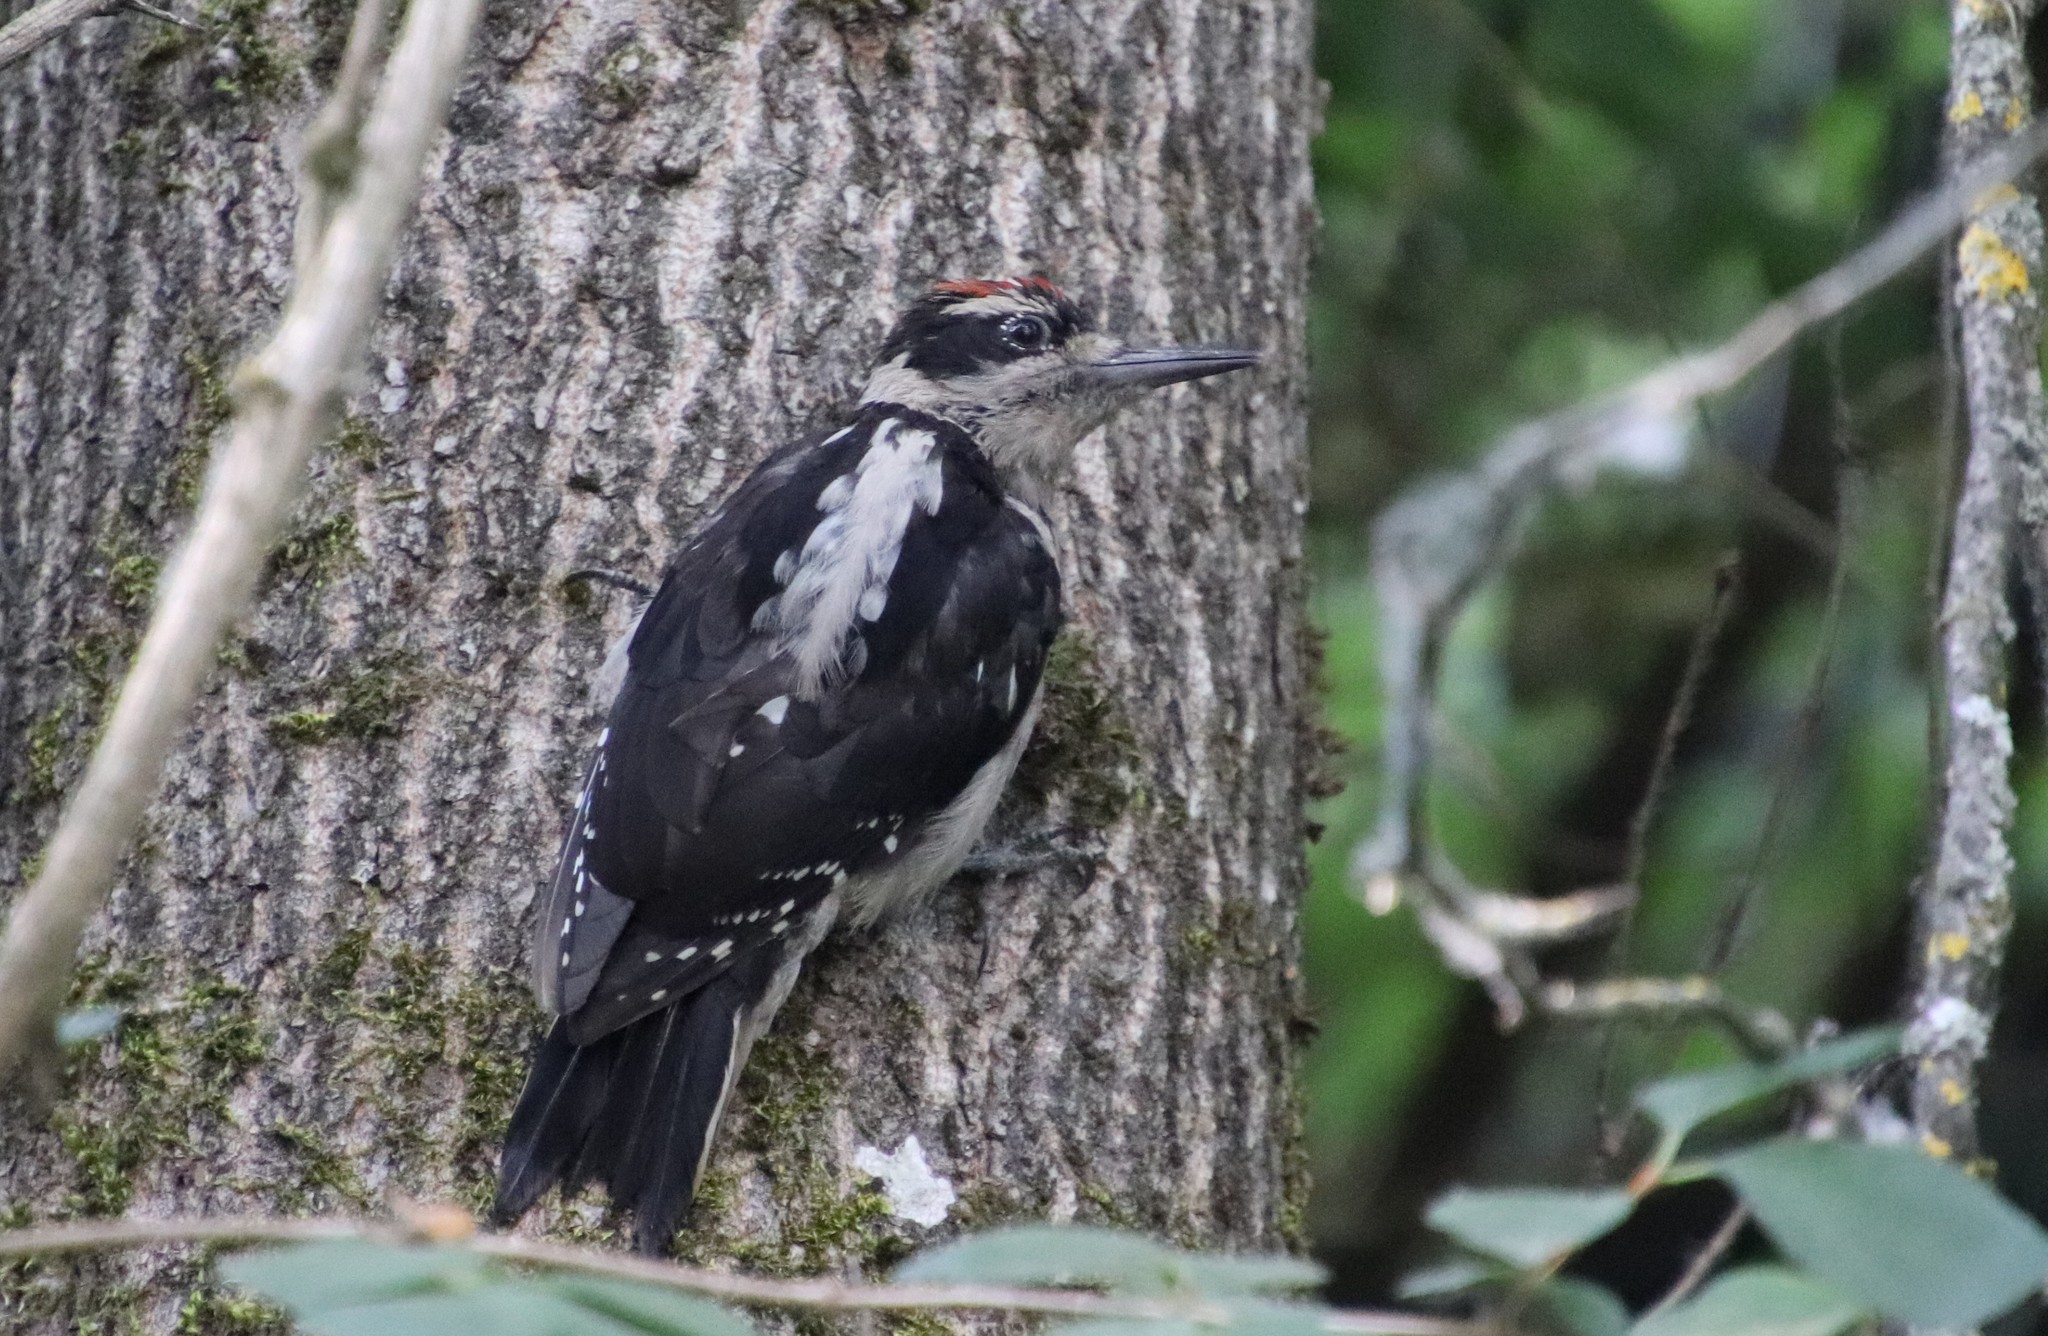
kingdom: Animalia
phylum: Chordata
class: Aves
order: Piciformes
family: Picidae
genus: Leuconotopicus
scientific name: Leuconotopicus villosus
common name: Hairy woodpecker
